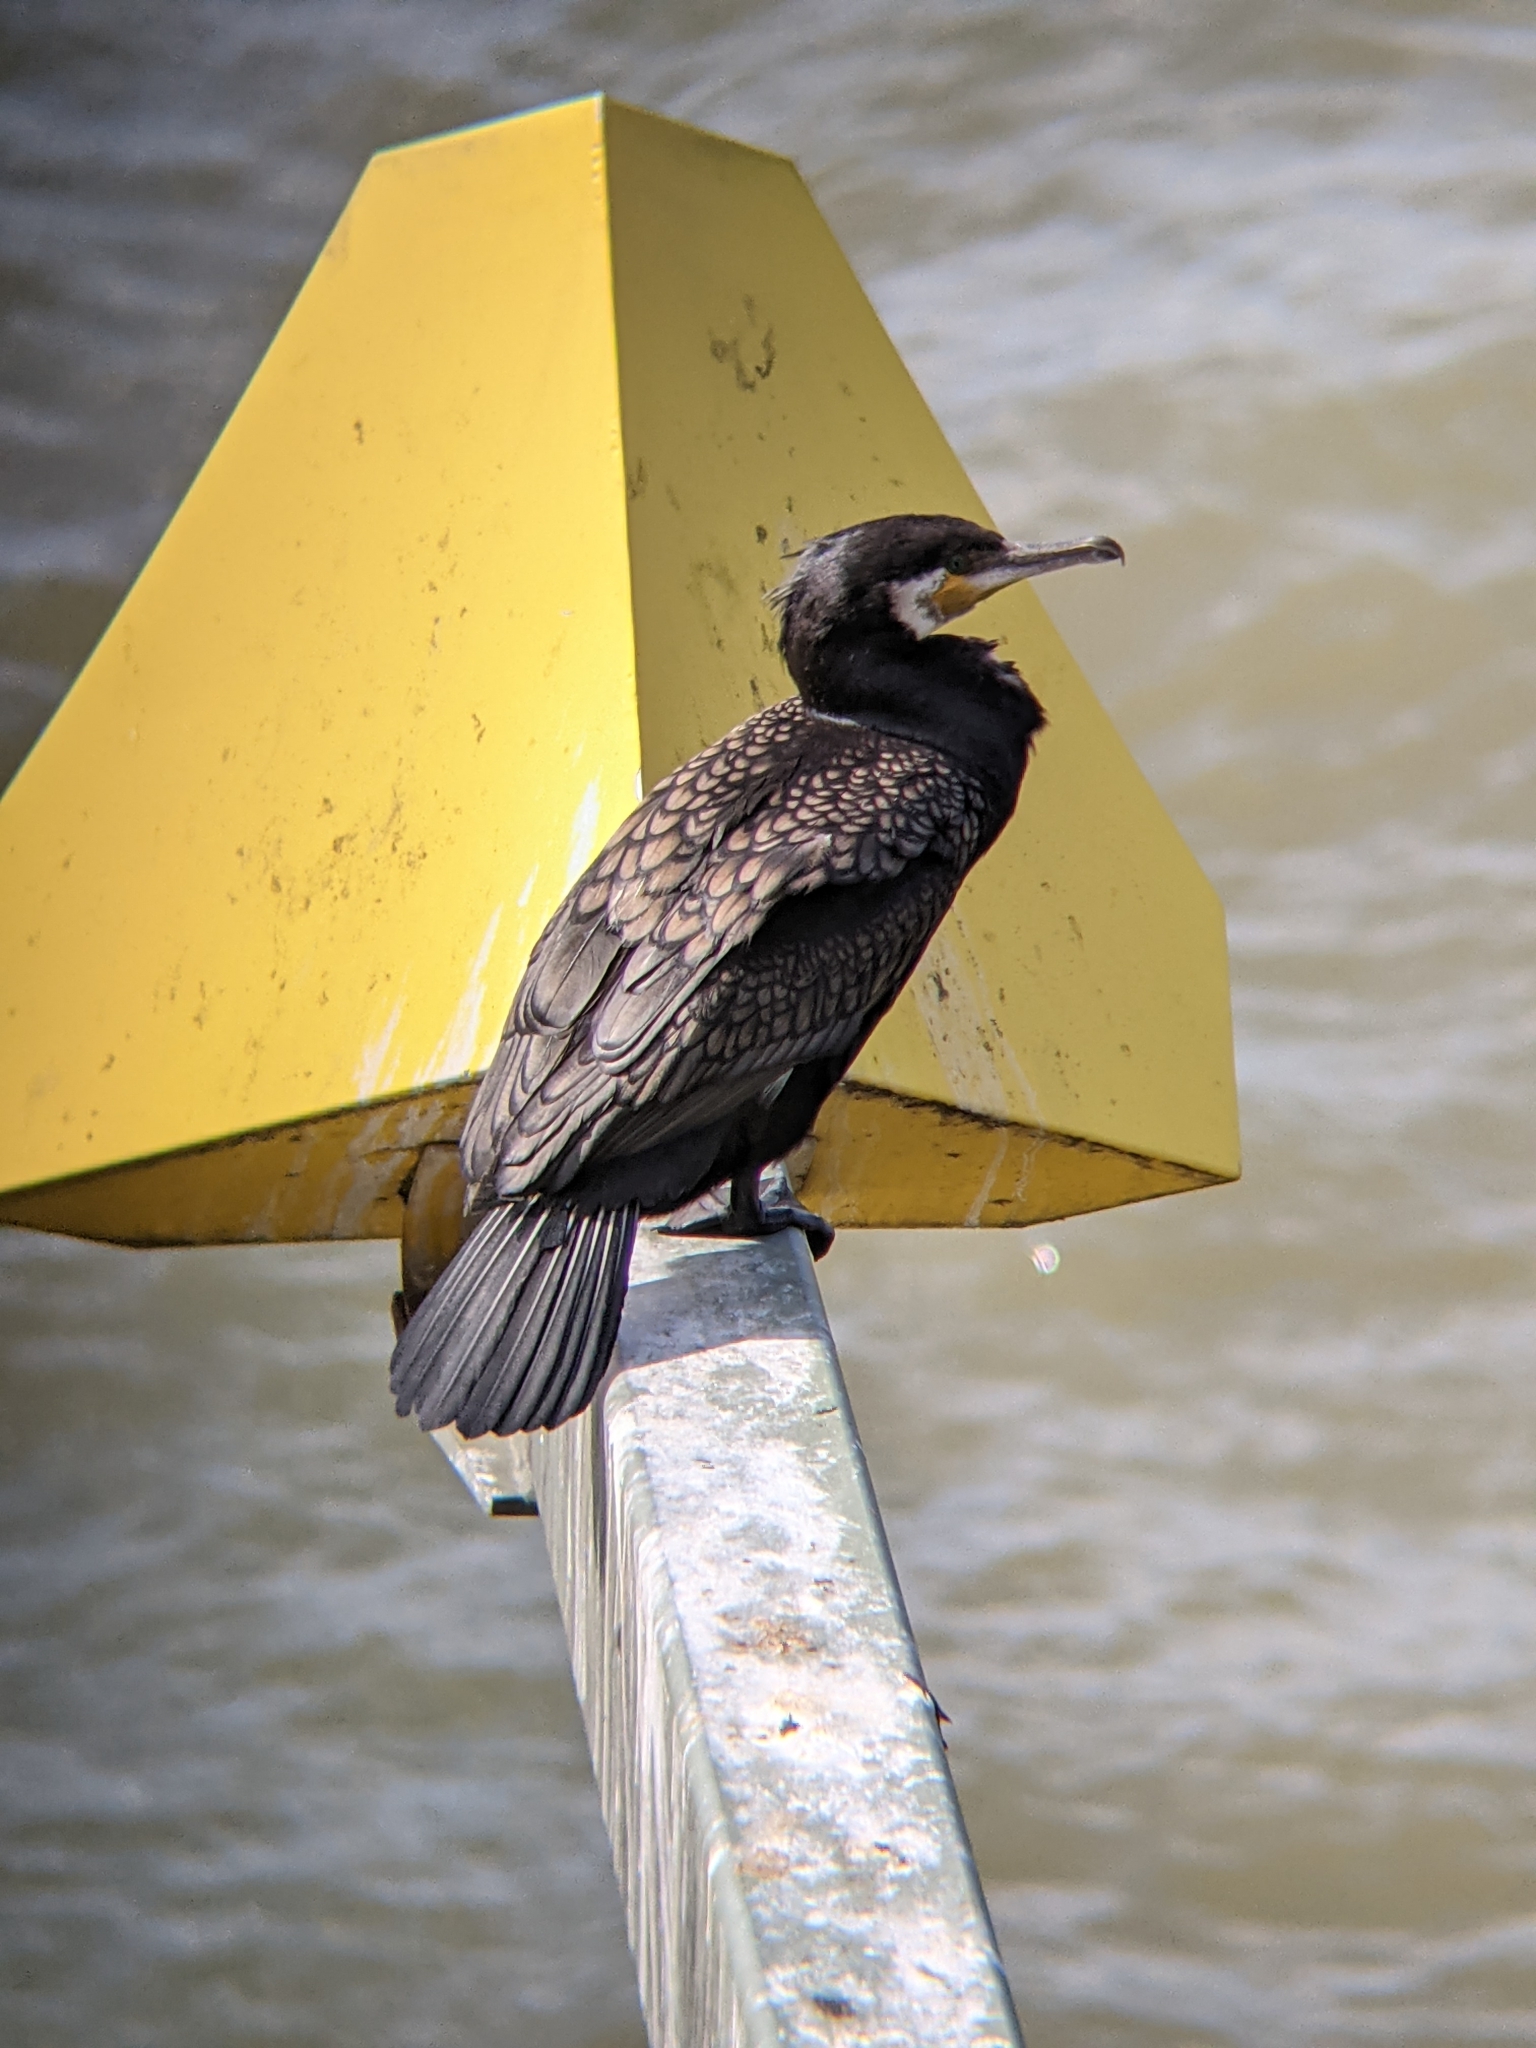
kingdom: Animalia
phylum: Chordata
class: Aves
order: Suliformes
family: Phalacrocoracidae
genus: Phalacrocorax
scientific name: Phalacrocorax carbo
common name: Great cormorant
